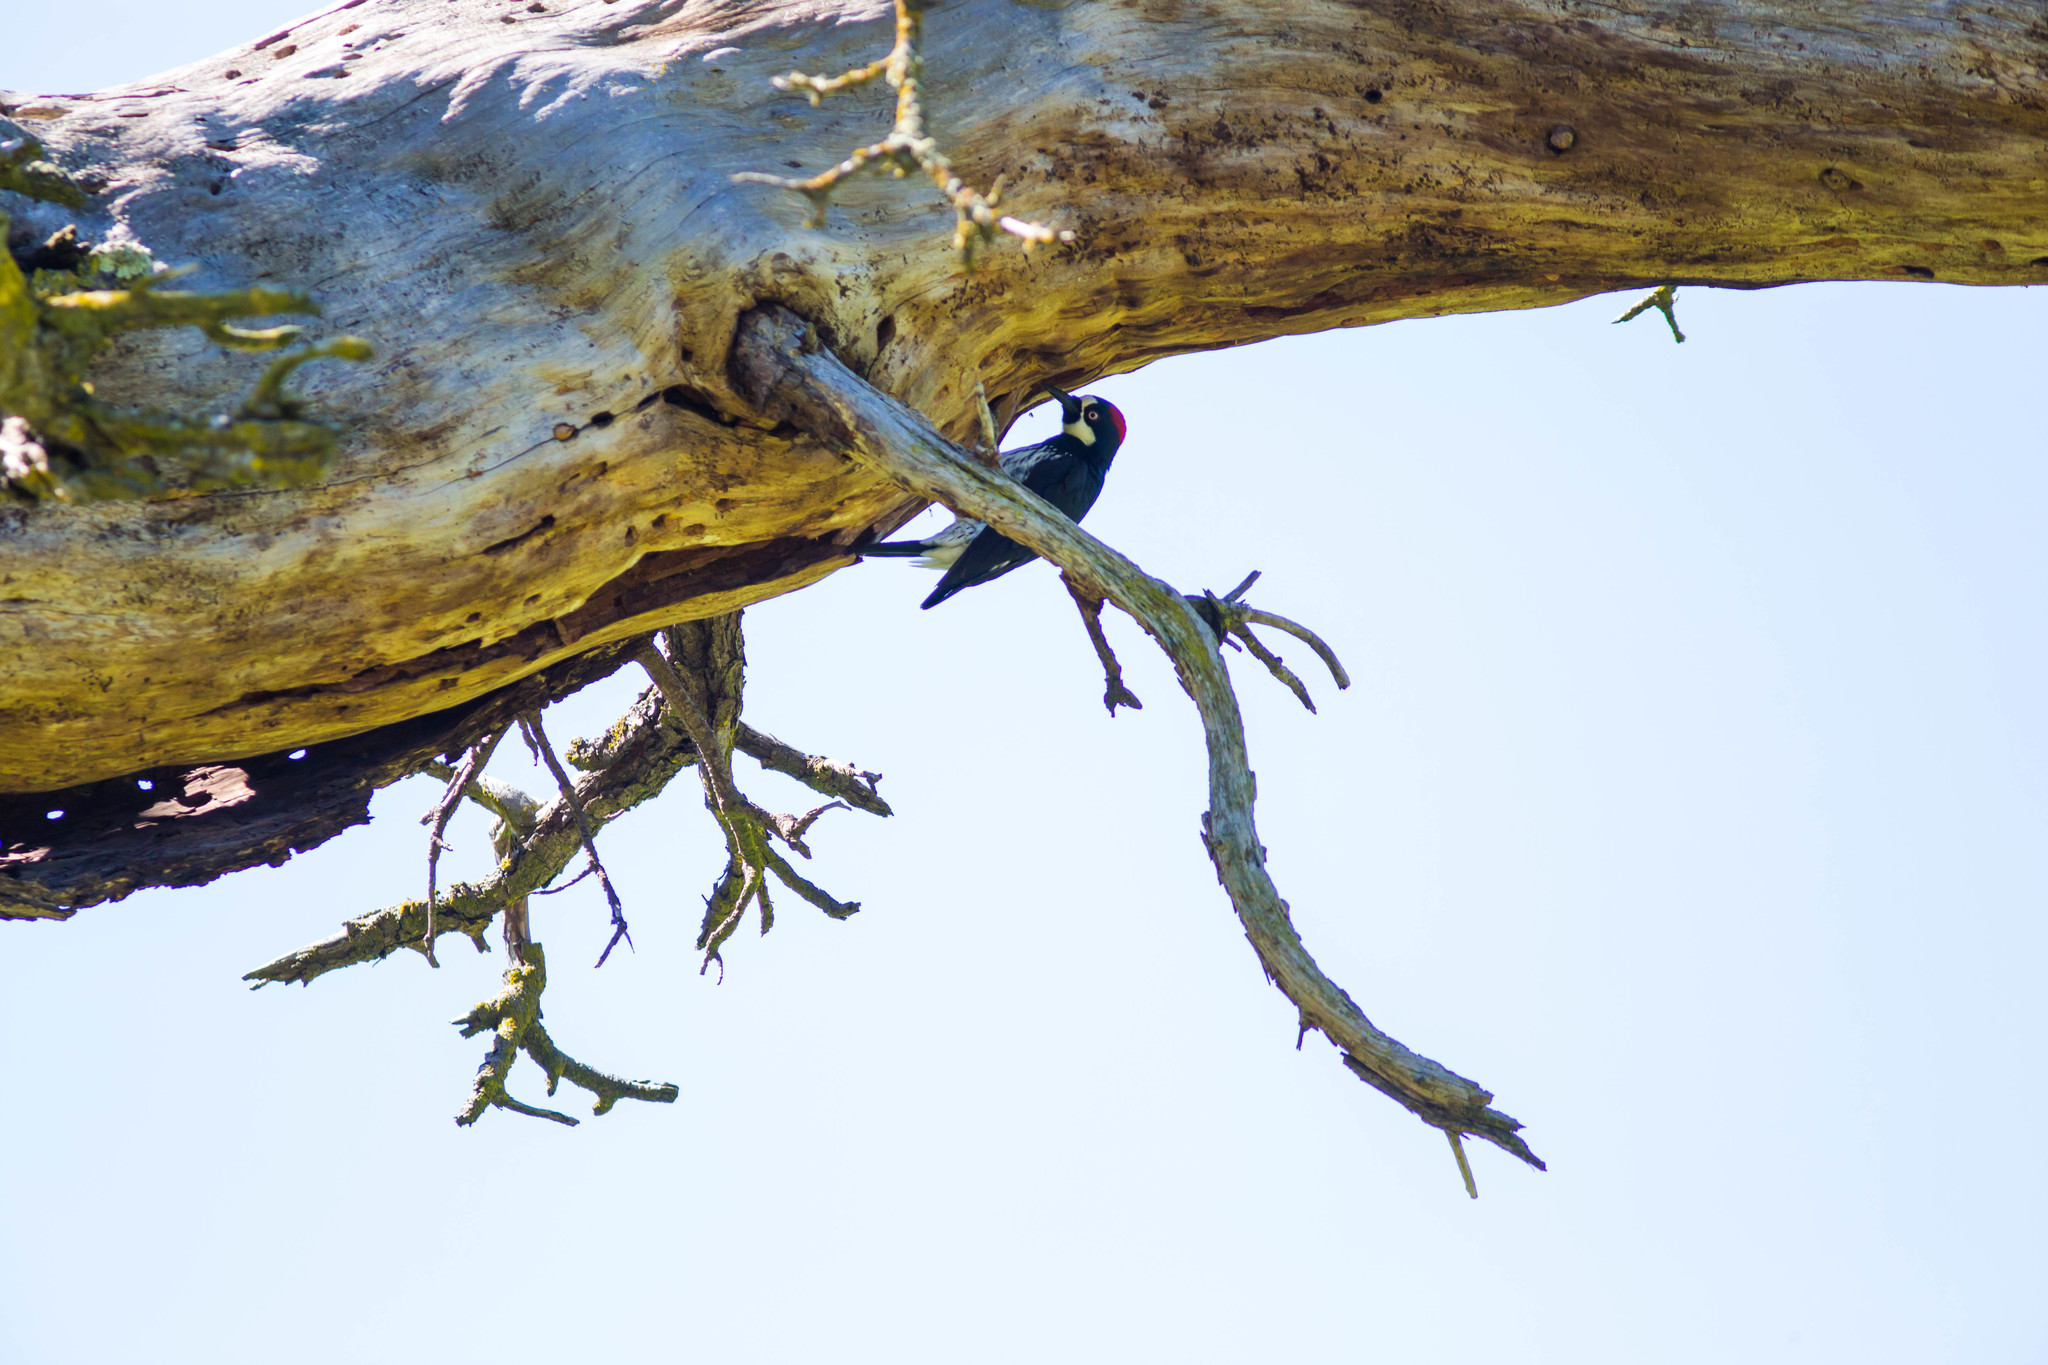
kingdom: Animalia
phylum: Chordata
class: Aves
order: Piciformes
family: Picidae
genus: Melanerpes
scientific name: Melanerpes formicivorus
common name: Acorn woodpecker
